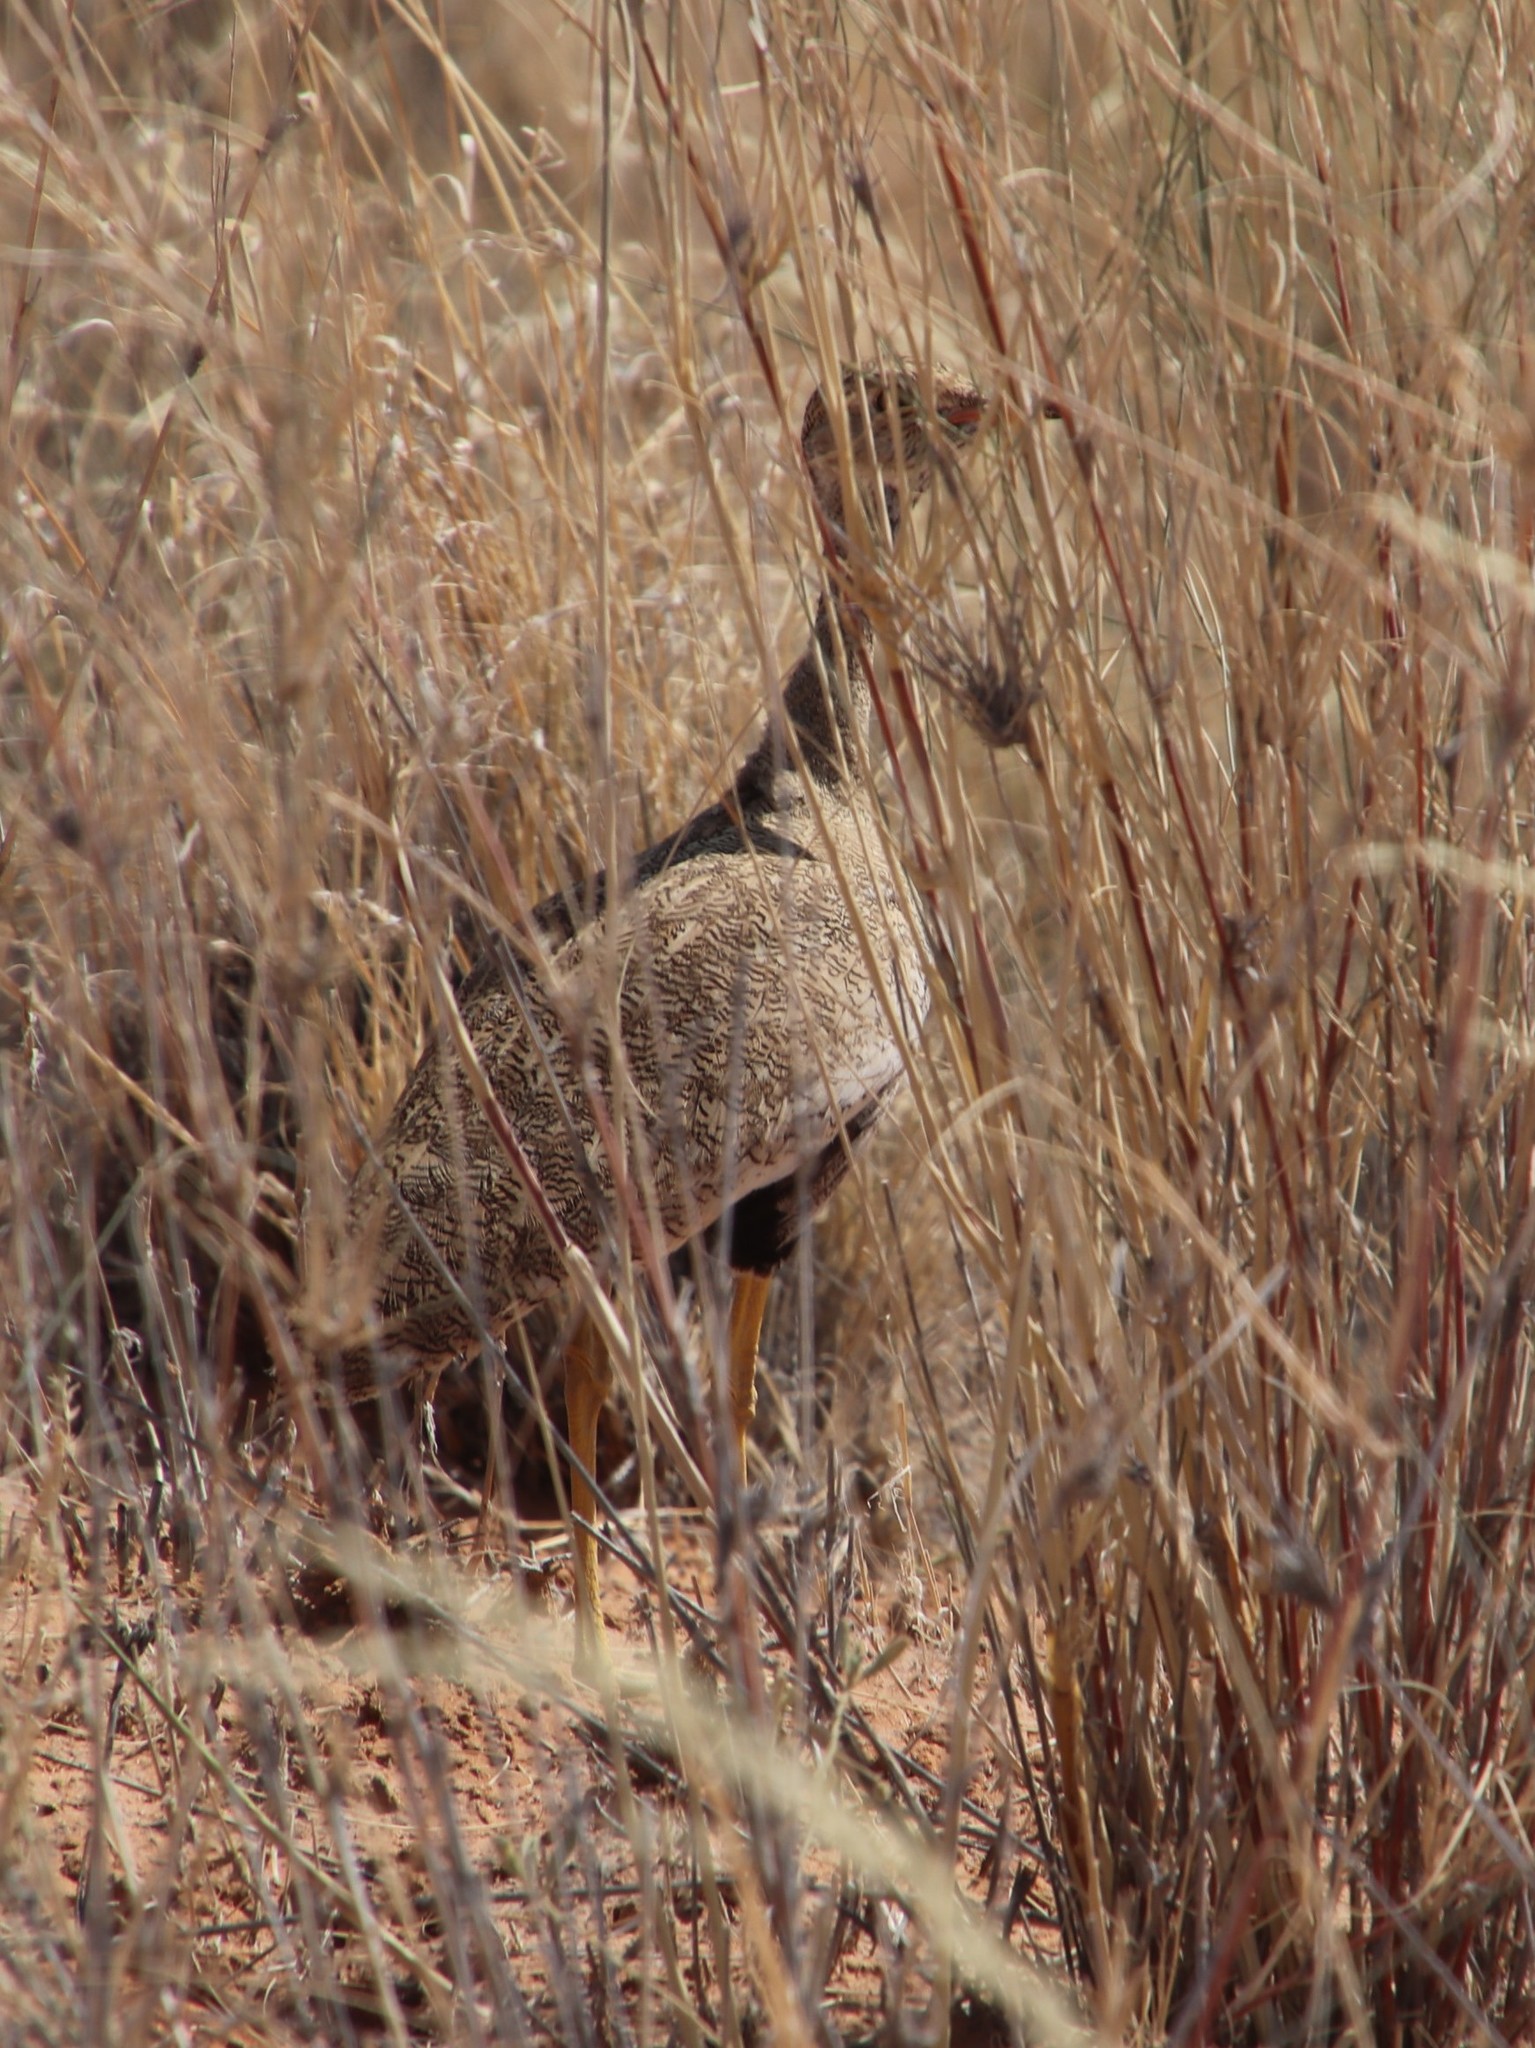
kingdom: Animalia
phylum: Chordata
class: Aves
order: Otidiformes
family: Otididae
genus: Afrotis
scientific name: Afrotis afraoides
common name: Northern black korhaan
